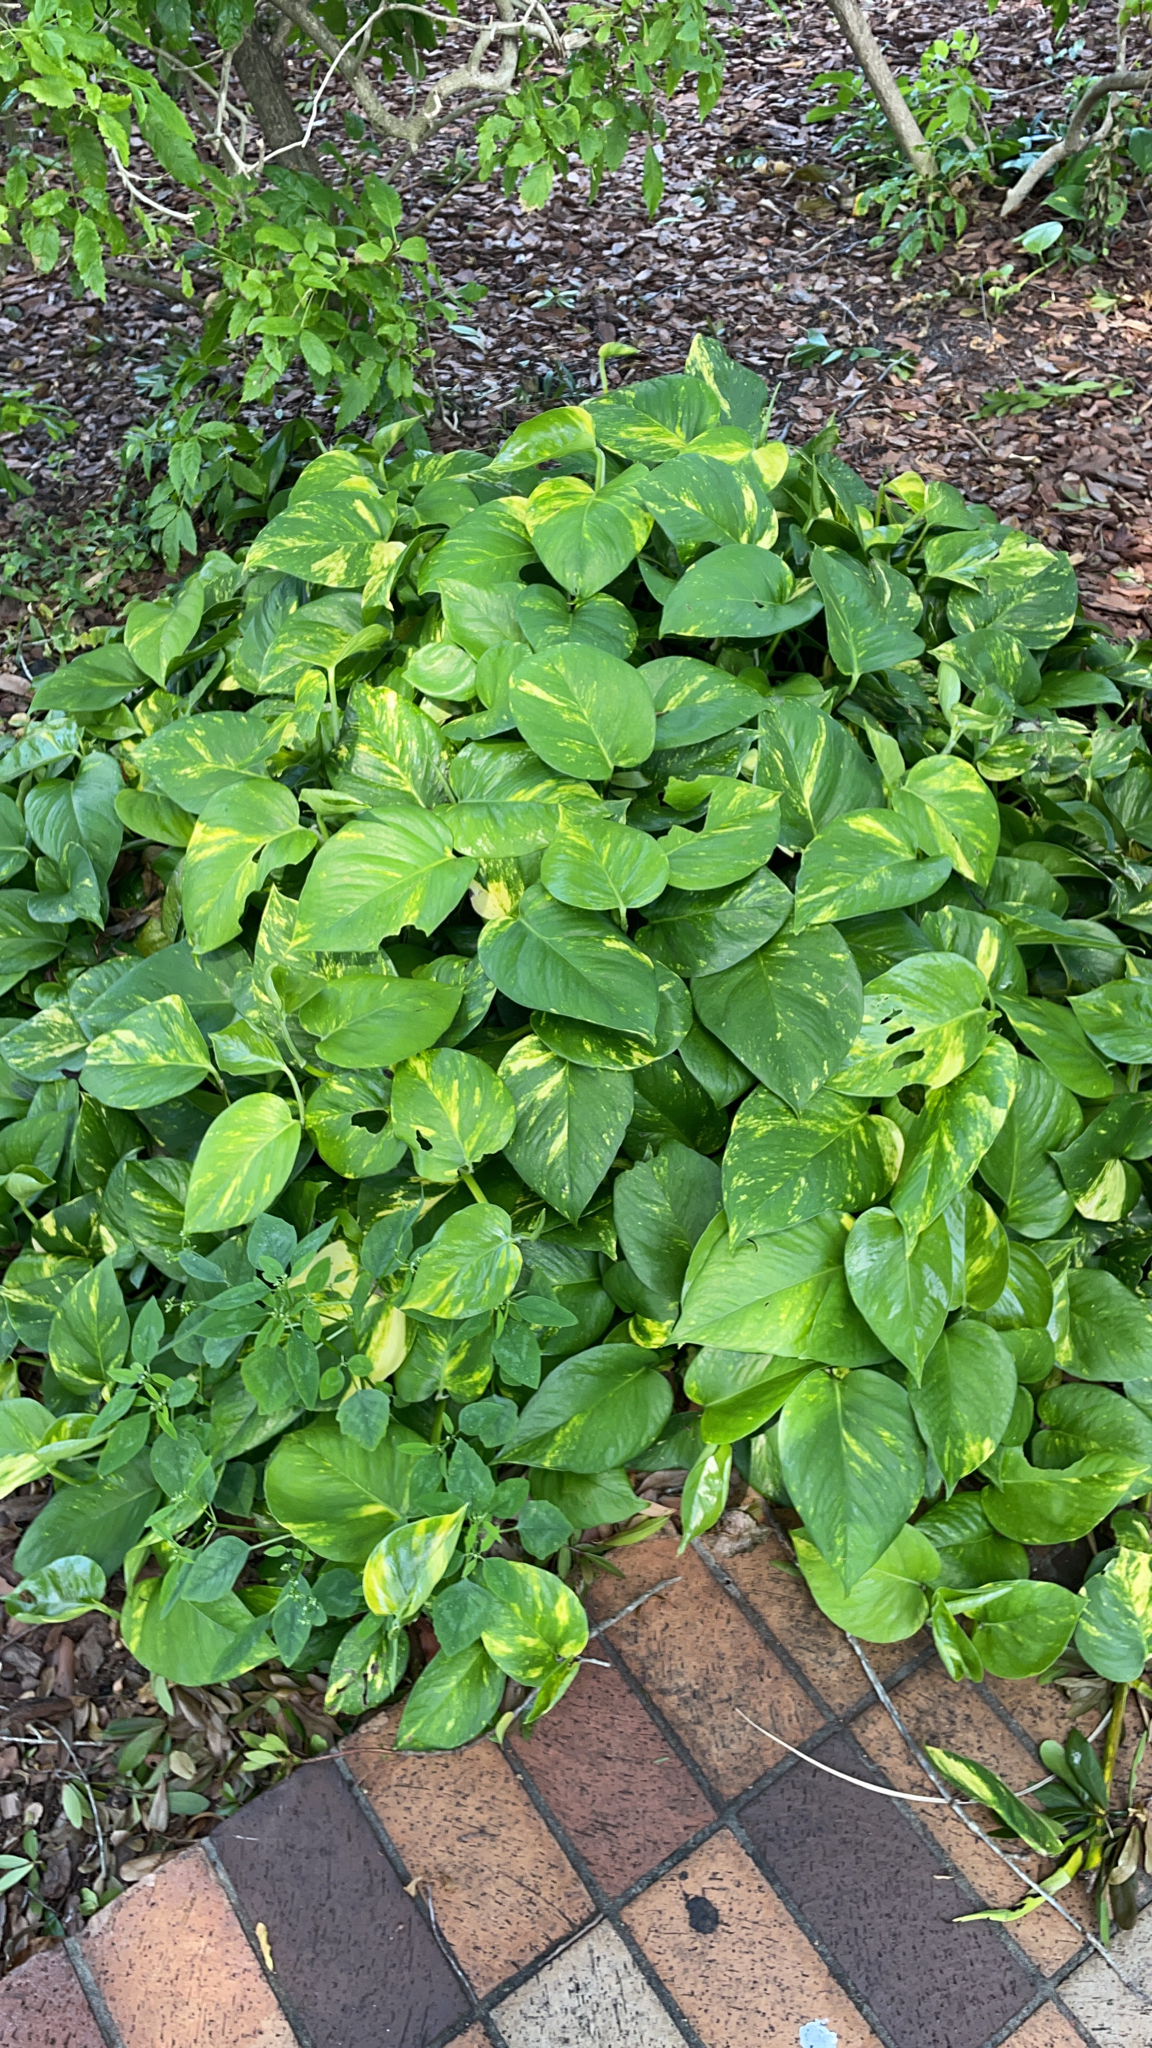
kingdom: Plantae
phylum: Tracheophyta
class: Liliopsida
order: Alismatales
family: Araceae
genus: Epipremnum
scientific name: Epipremnum aureum
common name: Golden hunter's-robe
